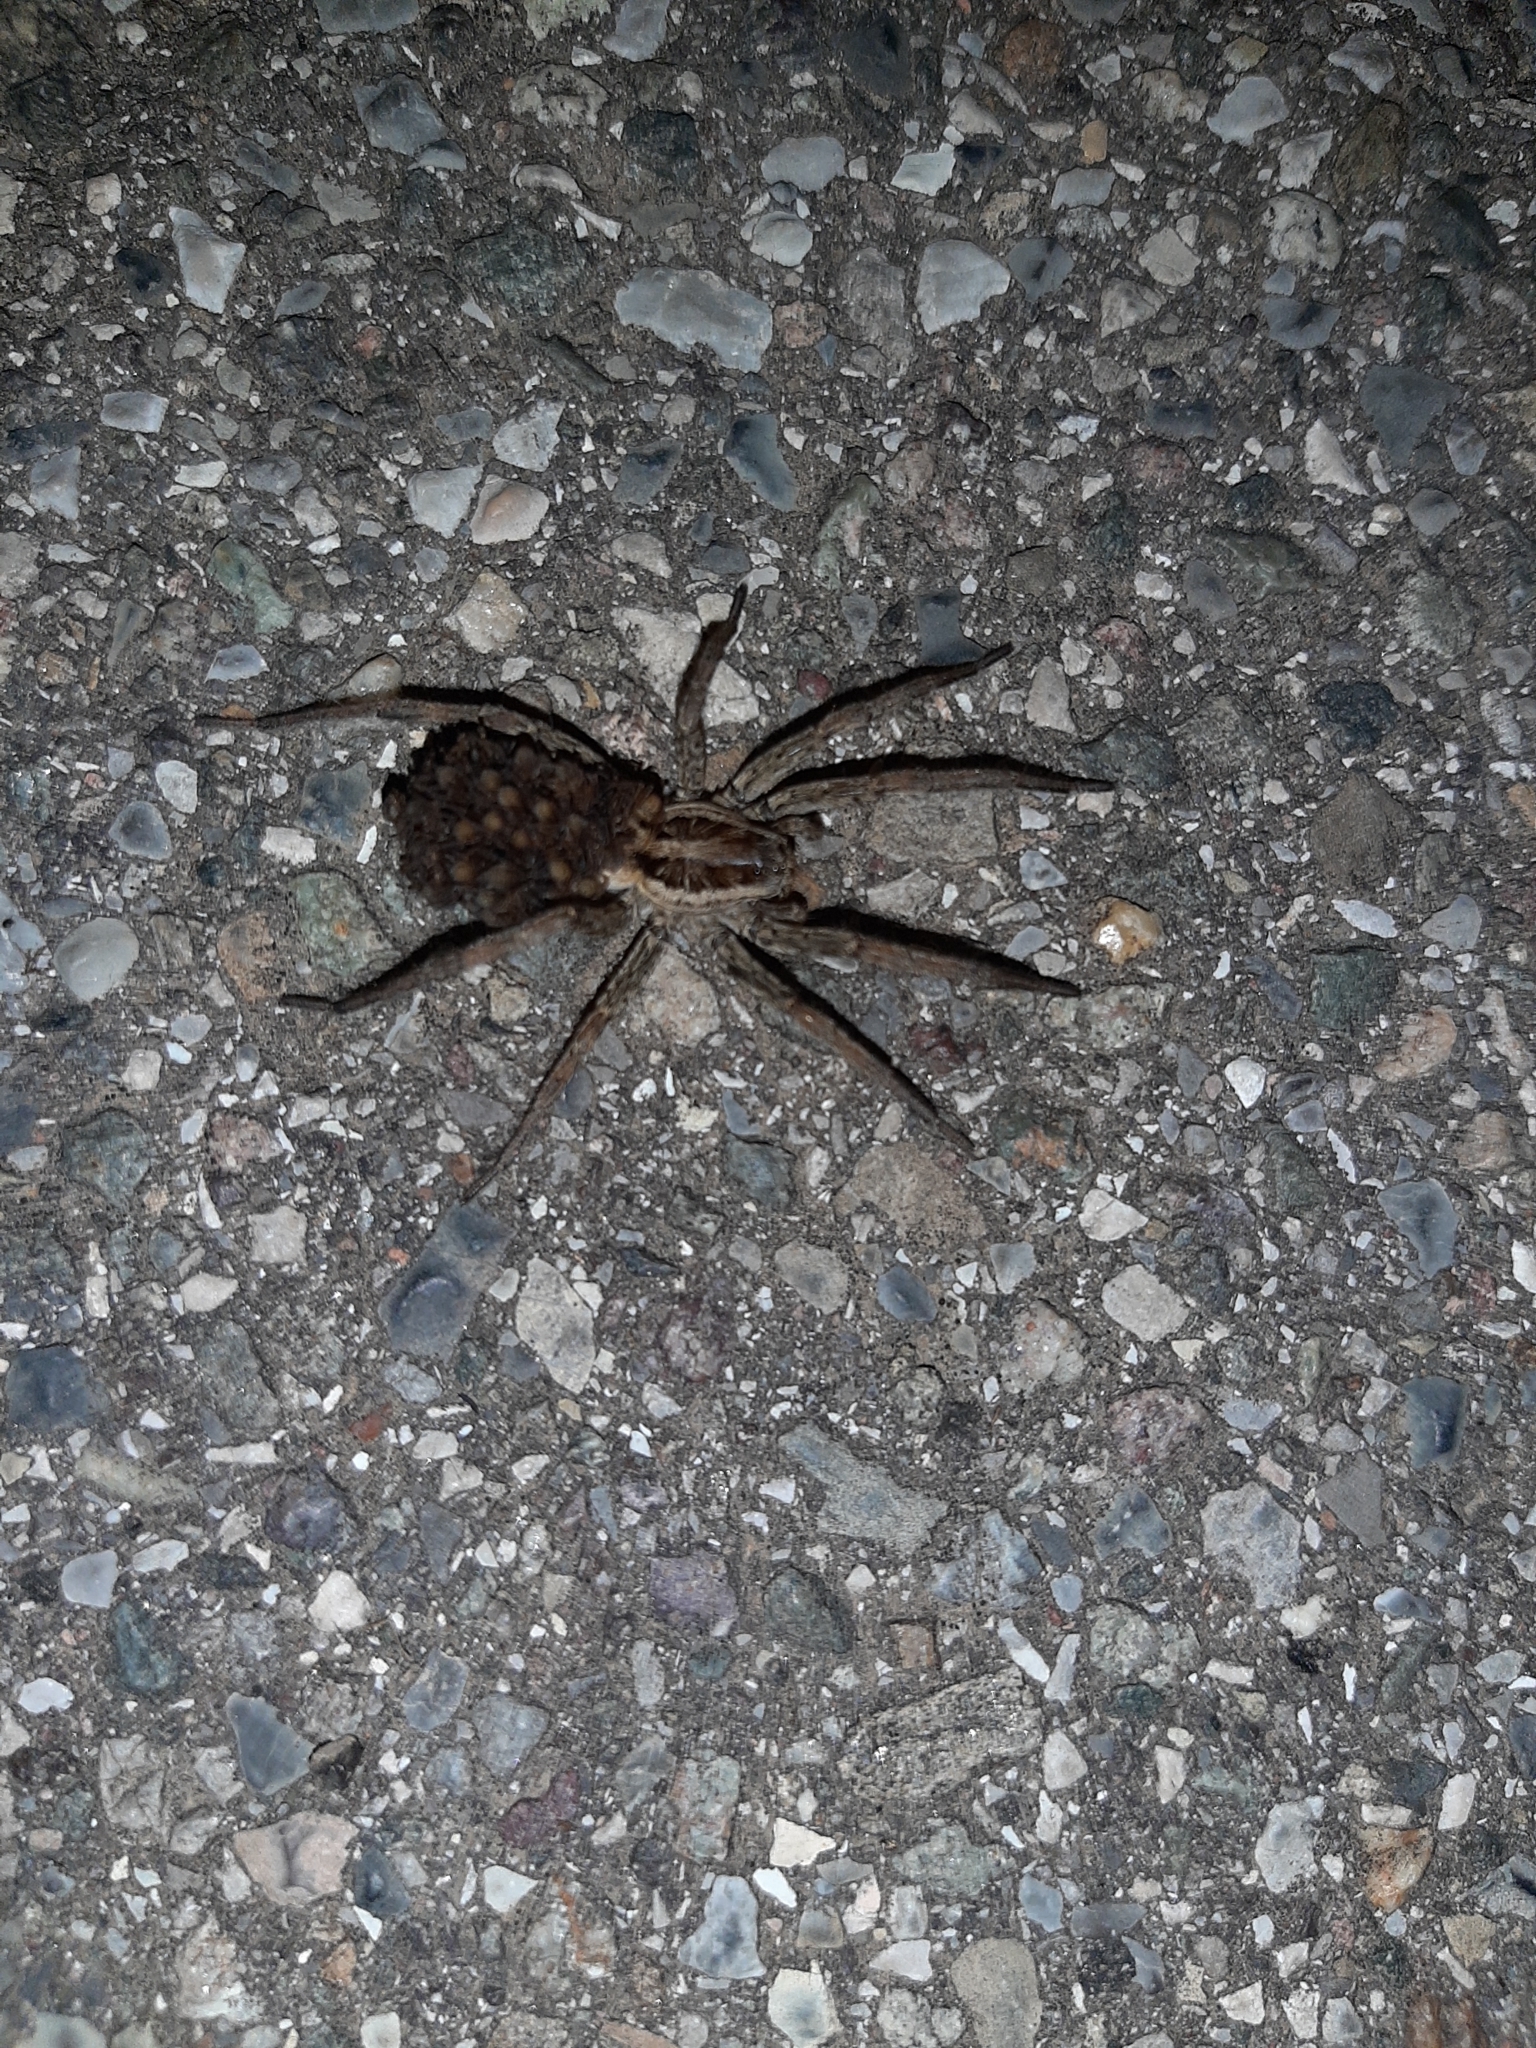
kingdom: Animalia
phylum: Arthropoda
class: Arachnida
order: Araneae
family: Lycosidae
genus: Hogna
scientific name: Hogna radiata
